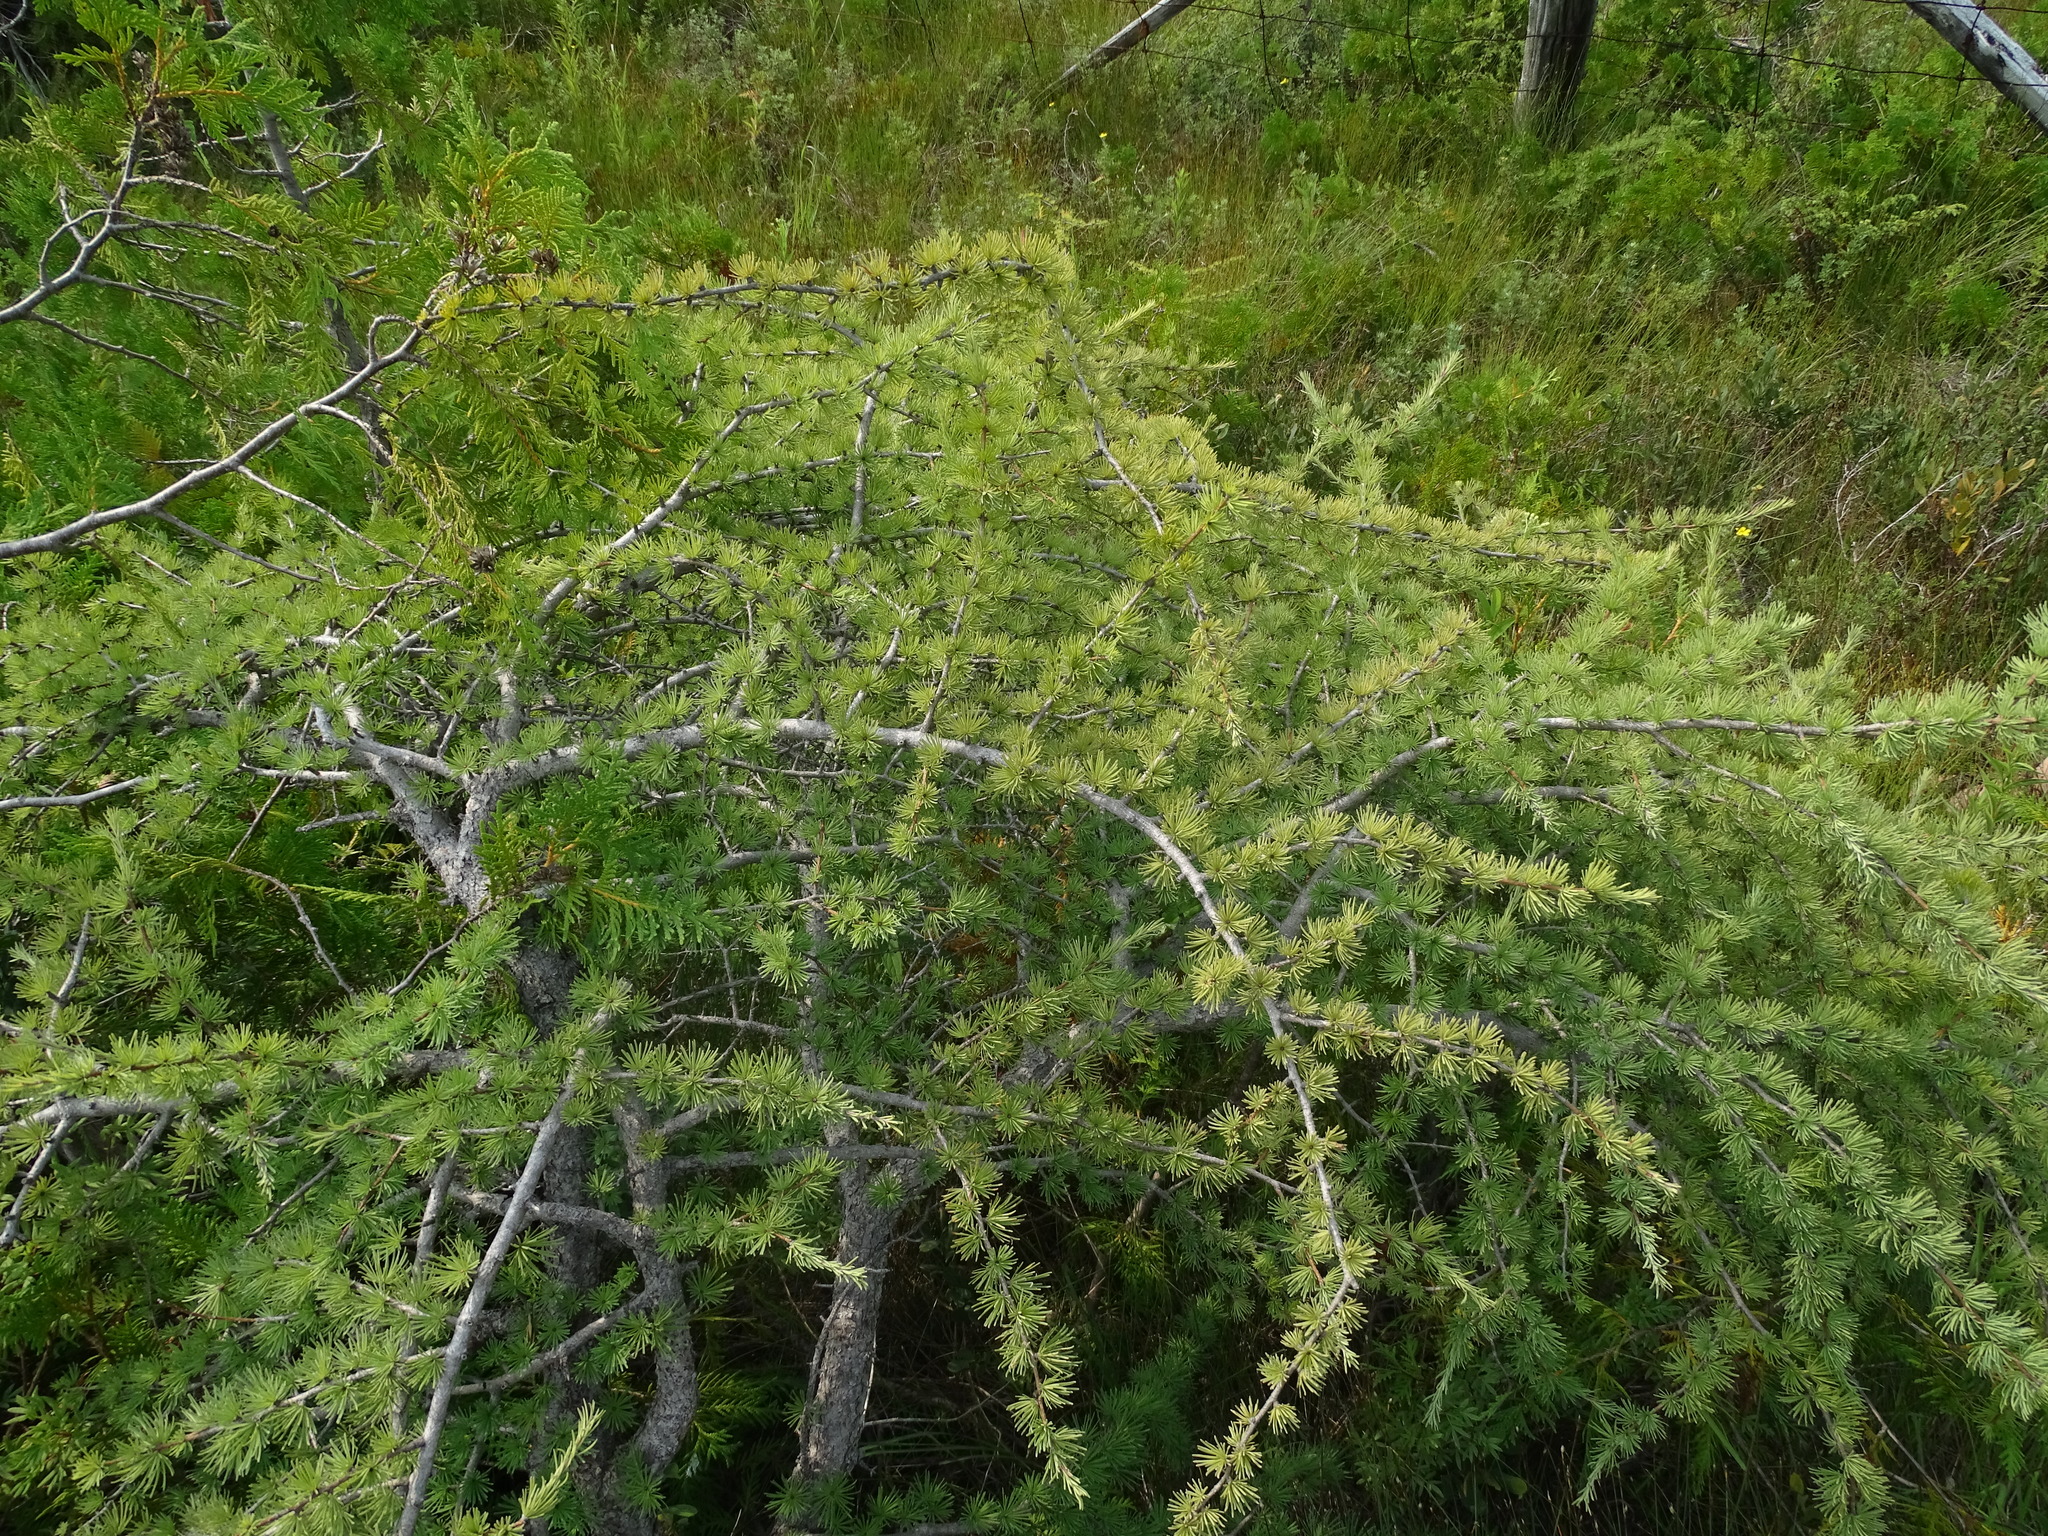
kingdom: Plantae
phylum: Tracheophyta
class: Pinopsida
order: Pinales
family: Pinaceae
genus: Larix
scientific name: Larix laricina
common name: American larch
